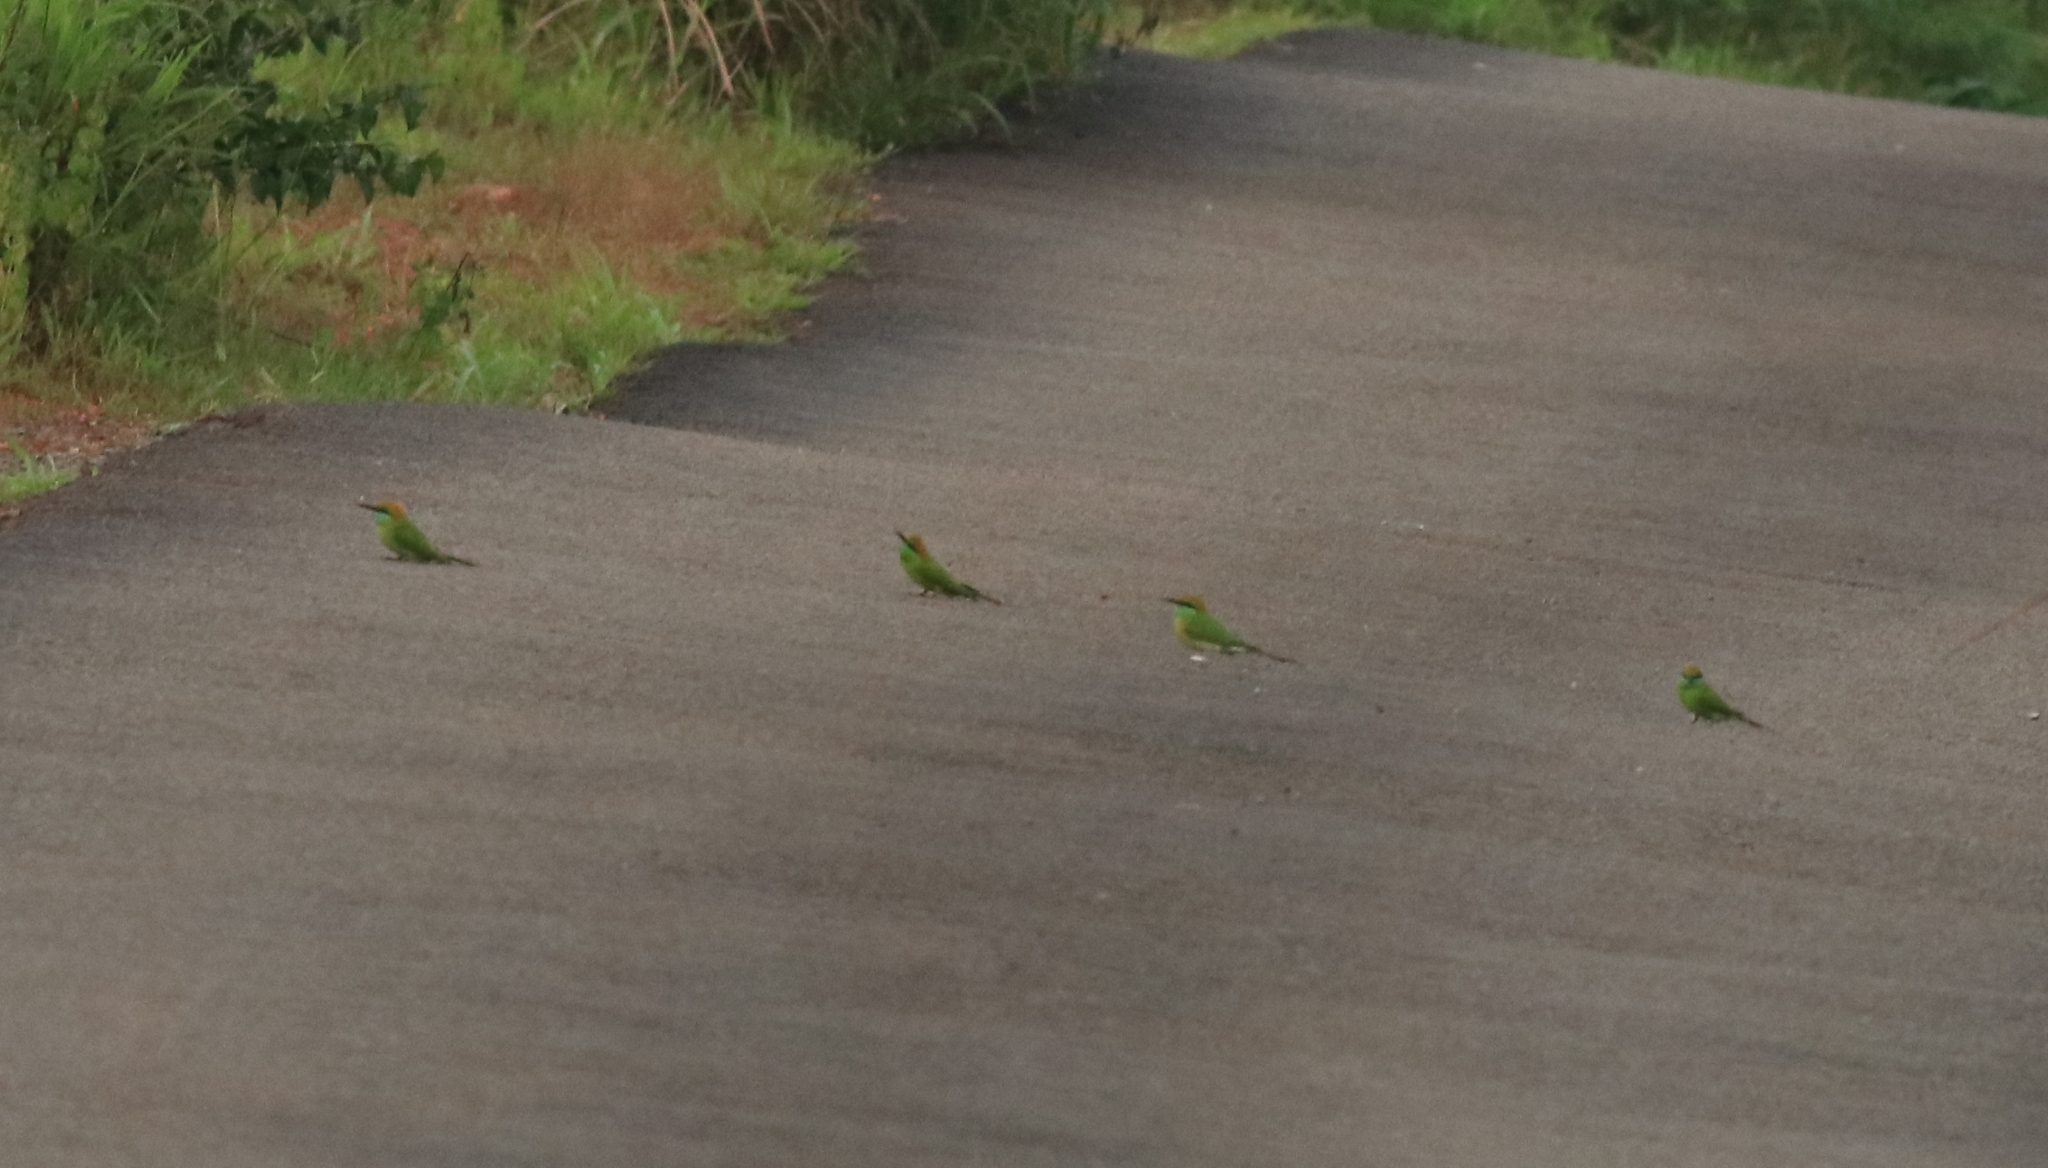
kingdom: Animalia
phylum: Chordata
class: Aves
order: Coraciiformes
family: Meropidae
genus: Merops
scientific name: Merops orientalis
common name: Green bee-eater
